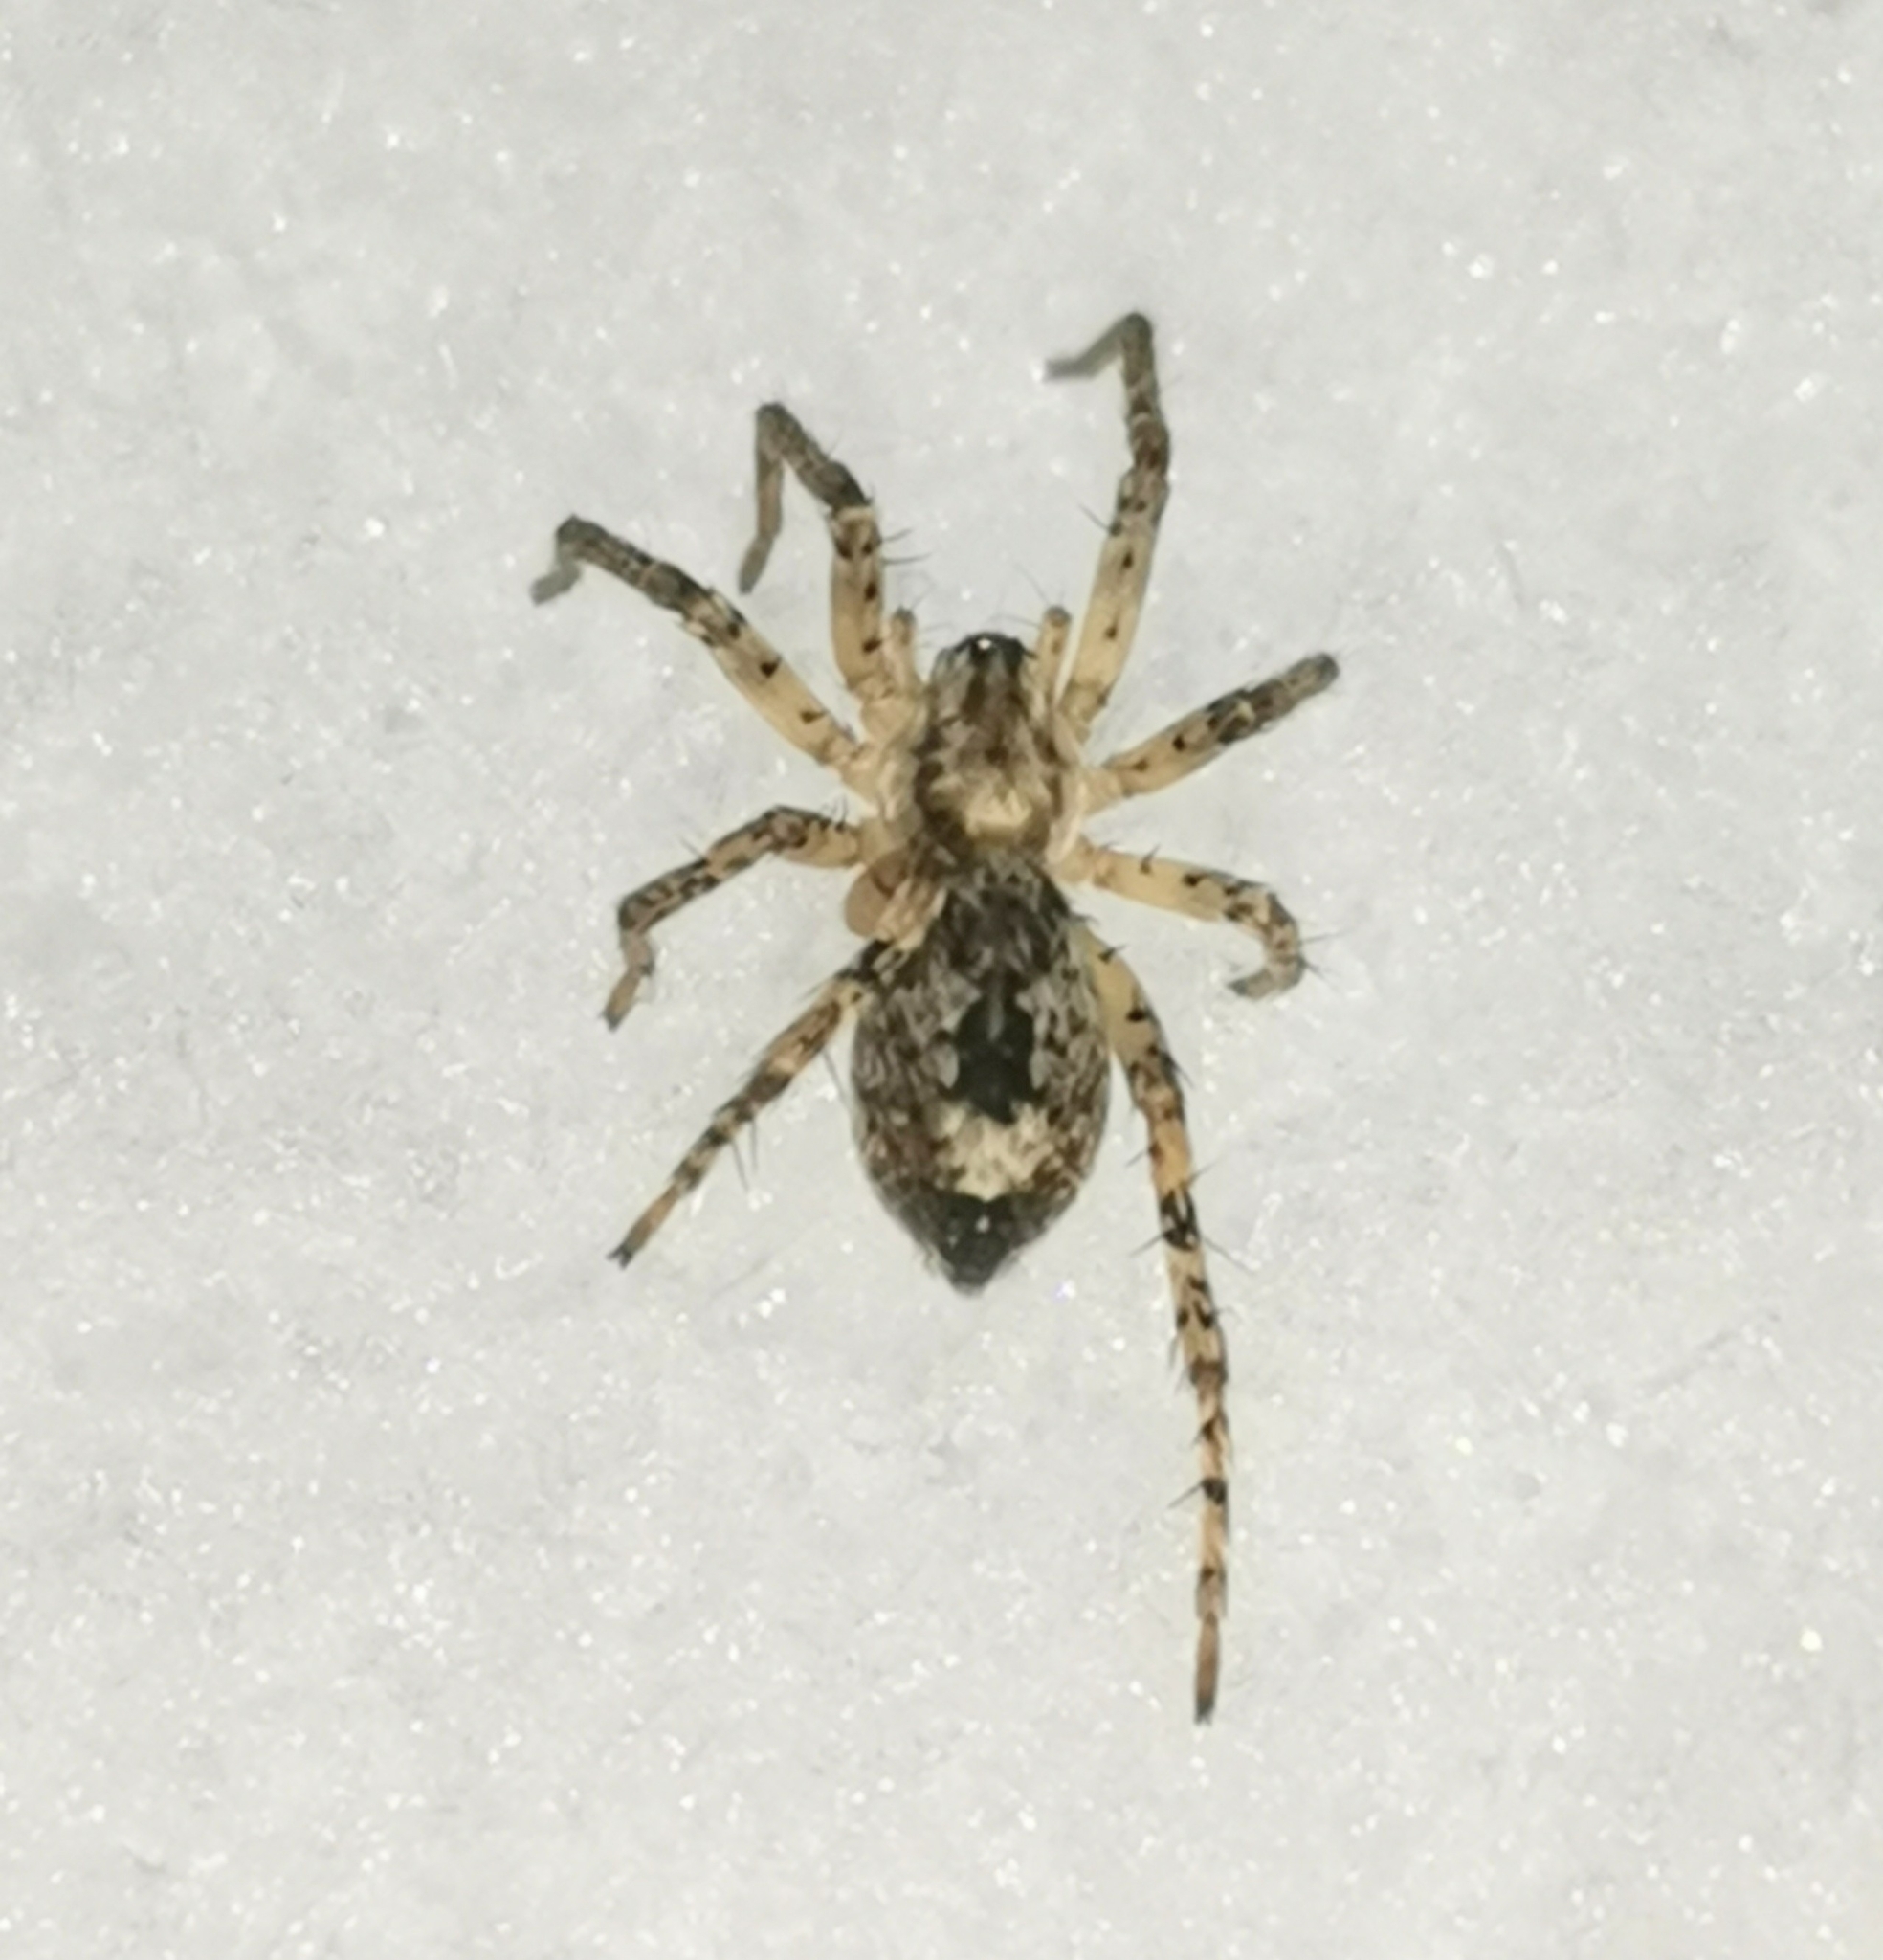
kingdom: Animalia
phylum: Arthropoda
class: Arachnida
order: Araneae
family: Anyphaenidae
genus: Anyphaena
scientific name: Anyphaena accentuata
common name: Buzzing spider
